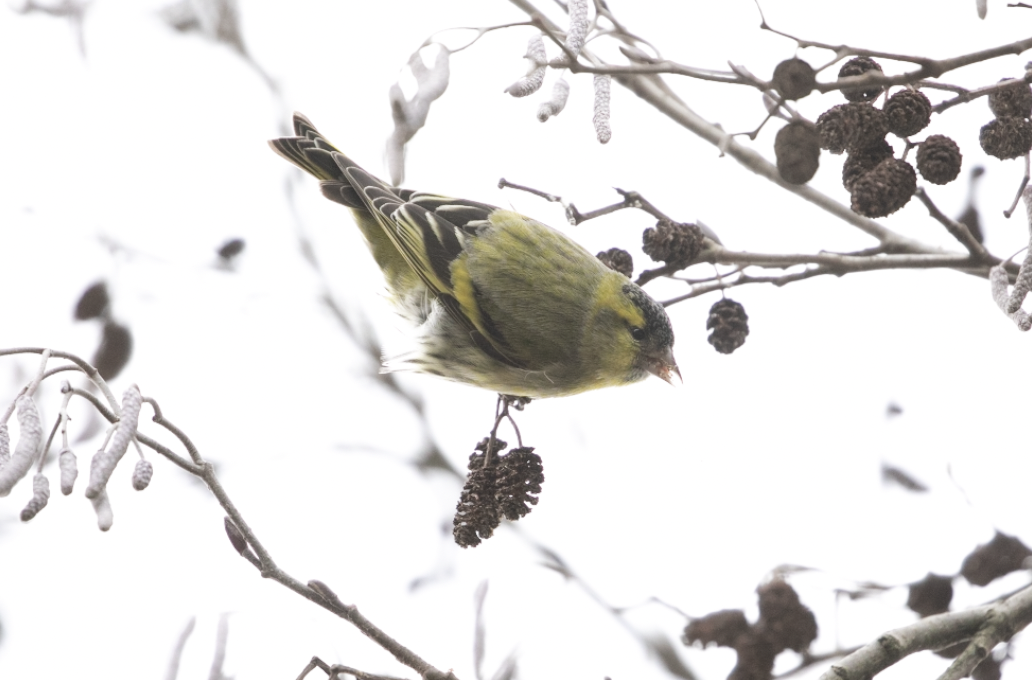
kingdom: Animalia
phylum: Chordata
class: Aves
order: Passeriformes
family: Fringillidae
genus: Spinus
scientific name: Spinus spinus
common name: Eurasian siskin
